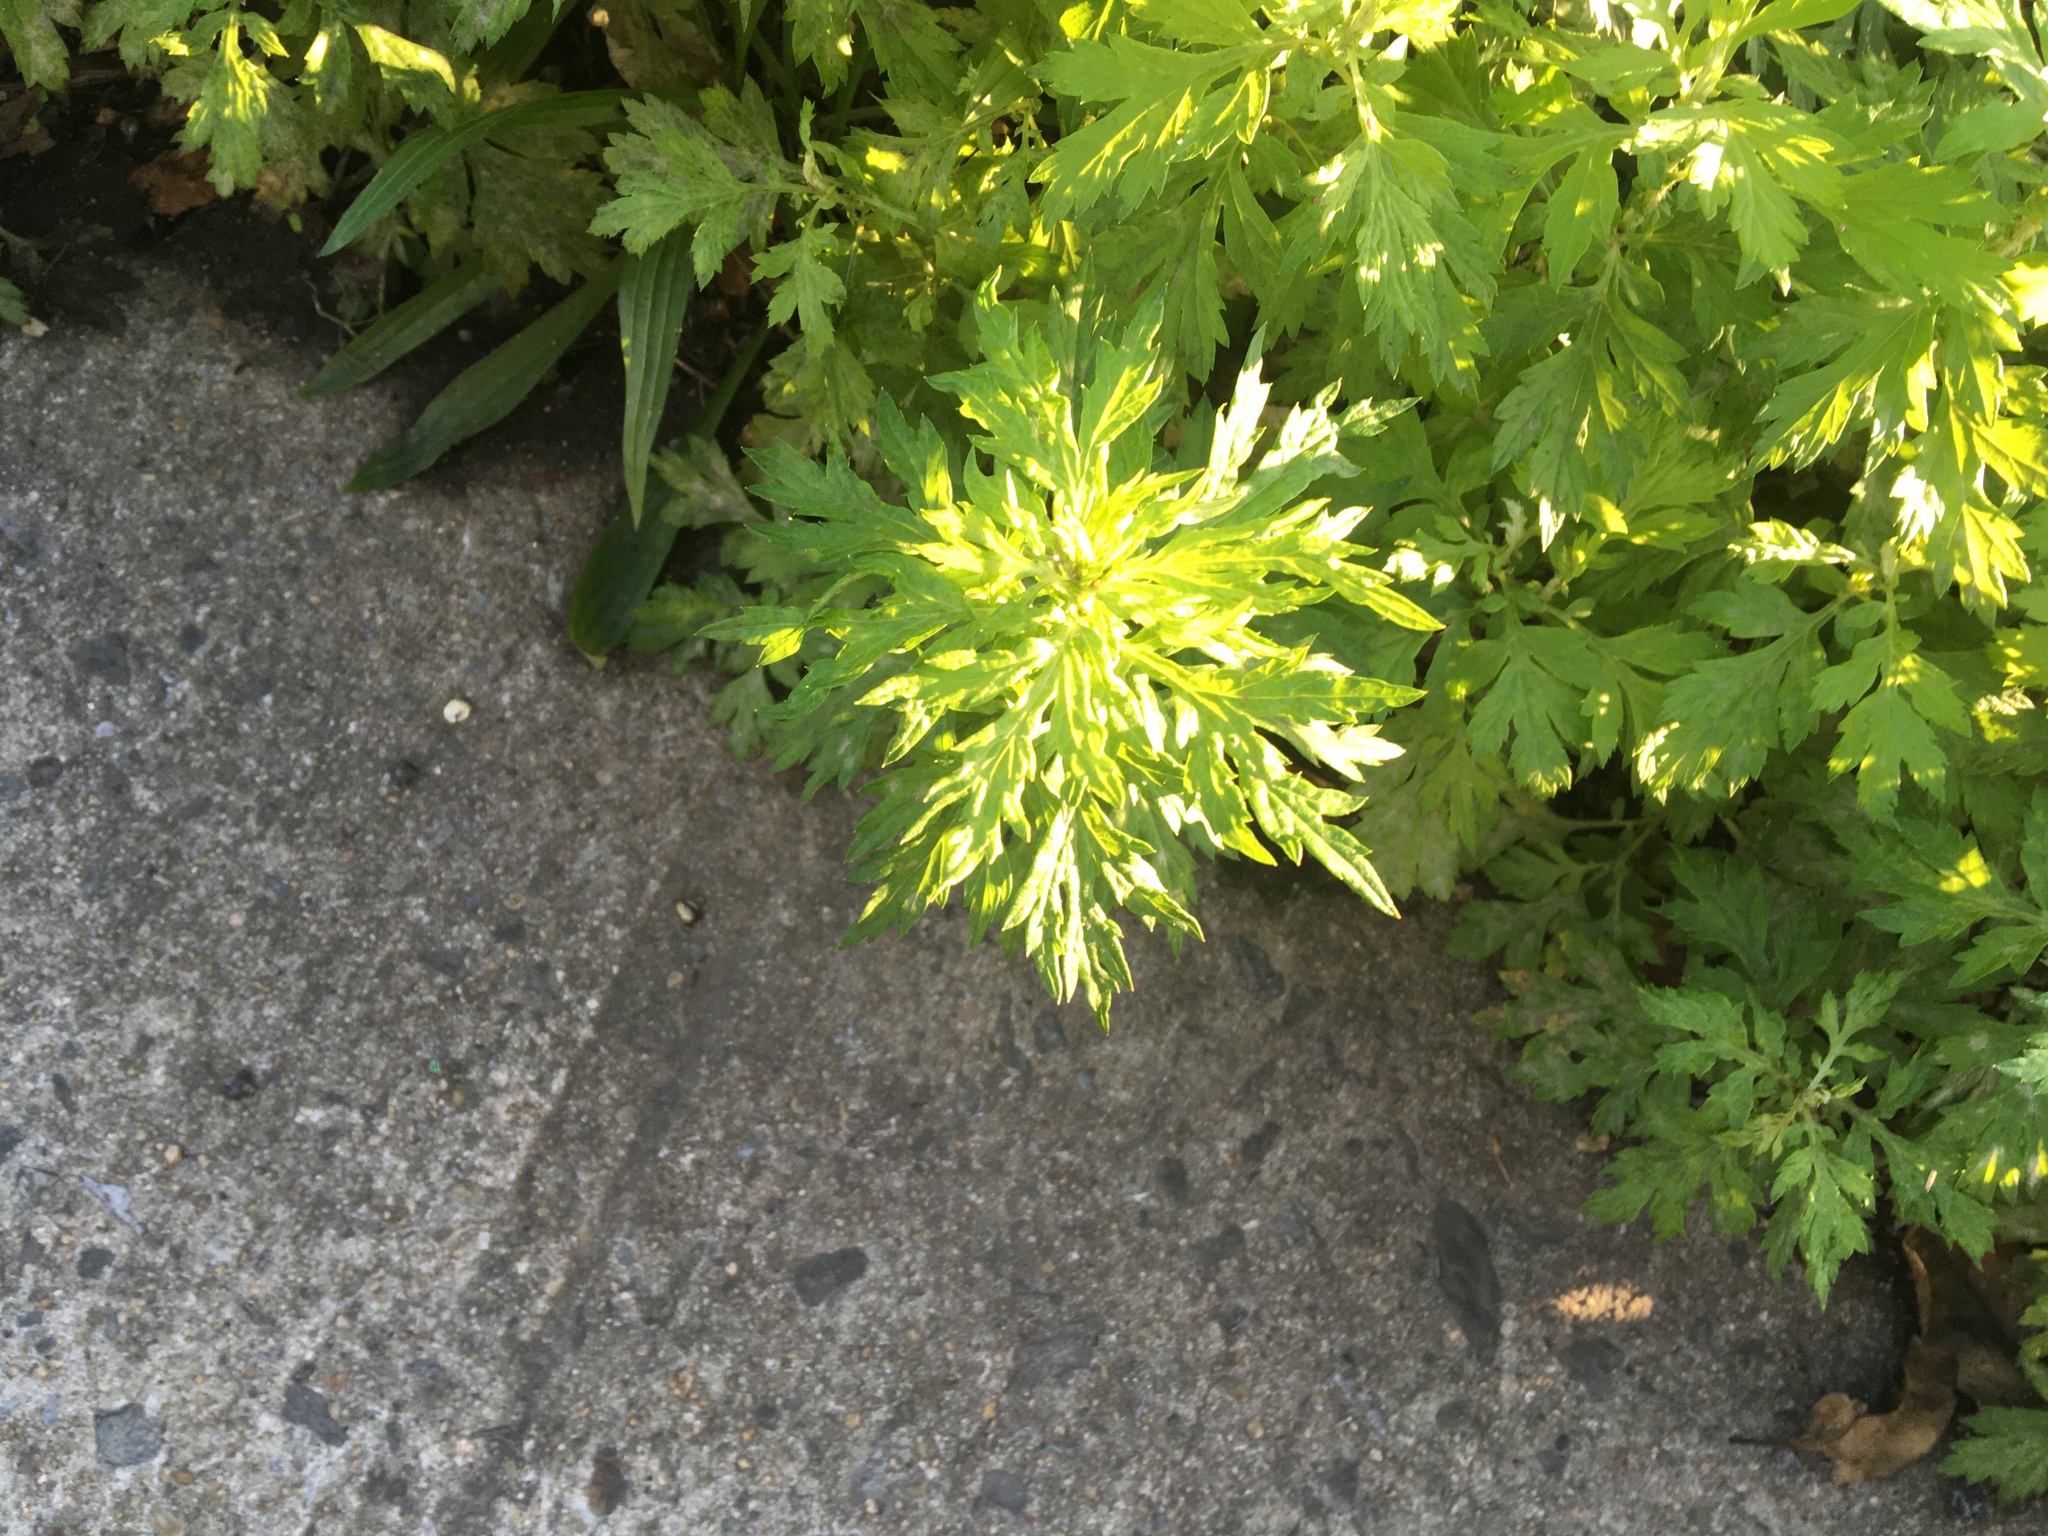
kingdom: Plantae
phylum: Tracheophyta
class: Magnoliopsida
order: Asterales
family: Asteraceae
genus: Artemisia
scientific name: Artemisia vulgaris
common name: Mugwort
